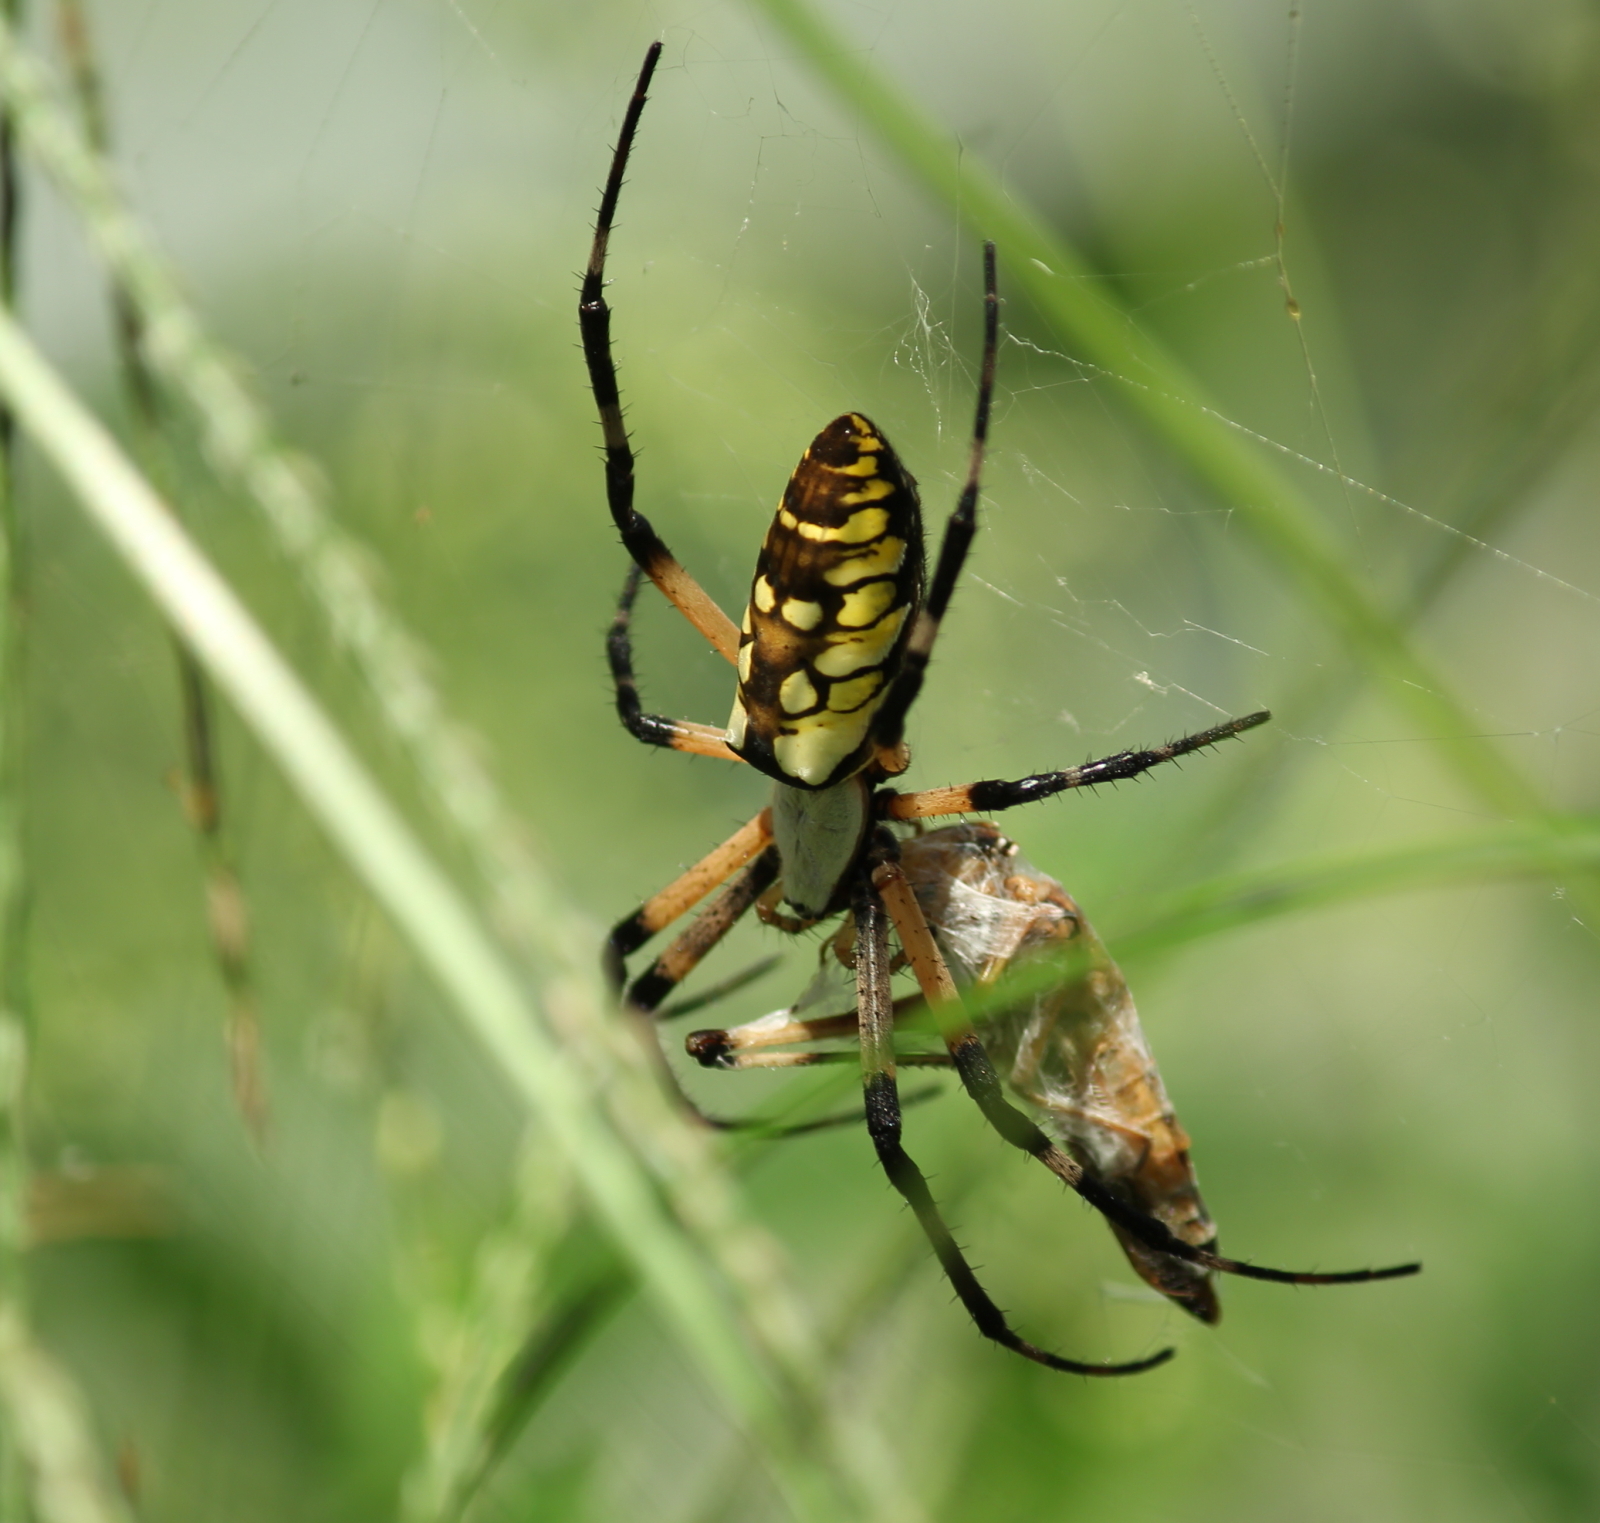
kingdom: Animalia
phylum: Arthropoda
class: Arachnida
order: Araneae
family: Araneidae
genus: Argiope
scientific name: Argiope aurantia
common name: Orb weavers
